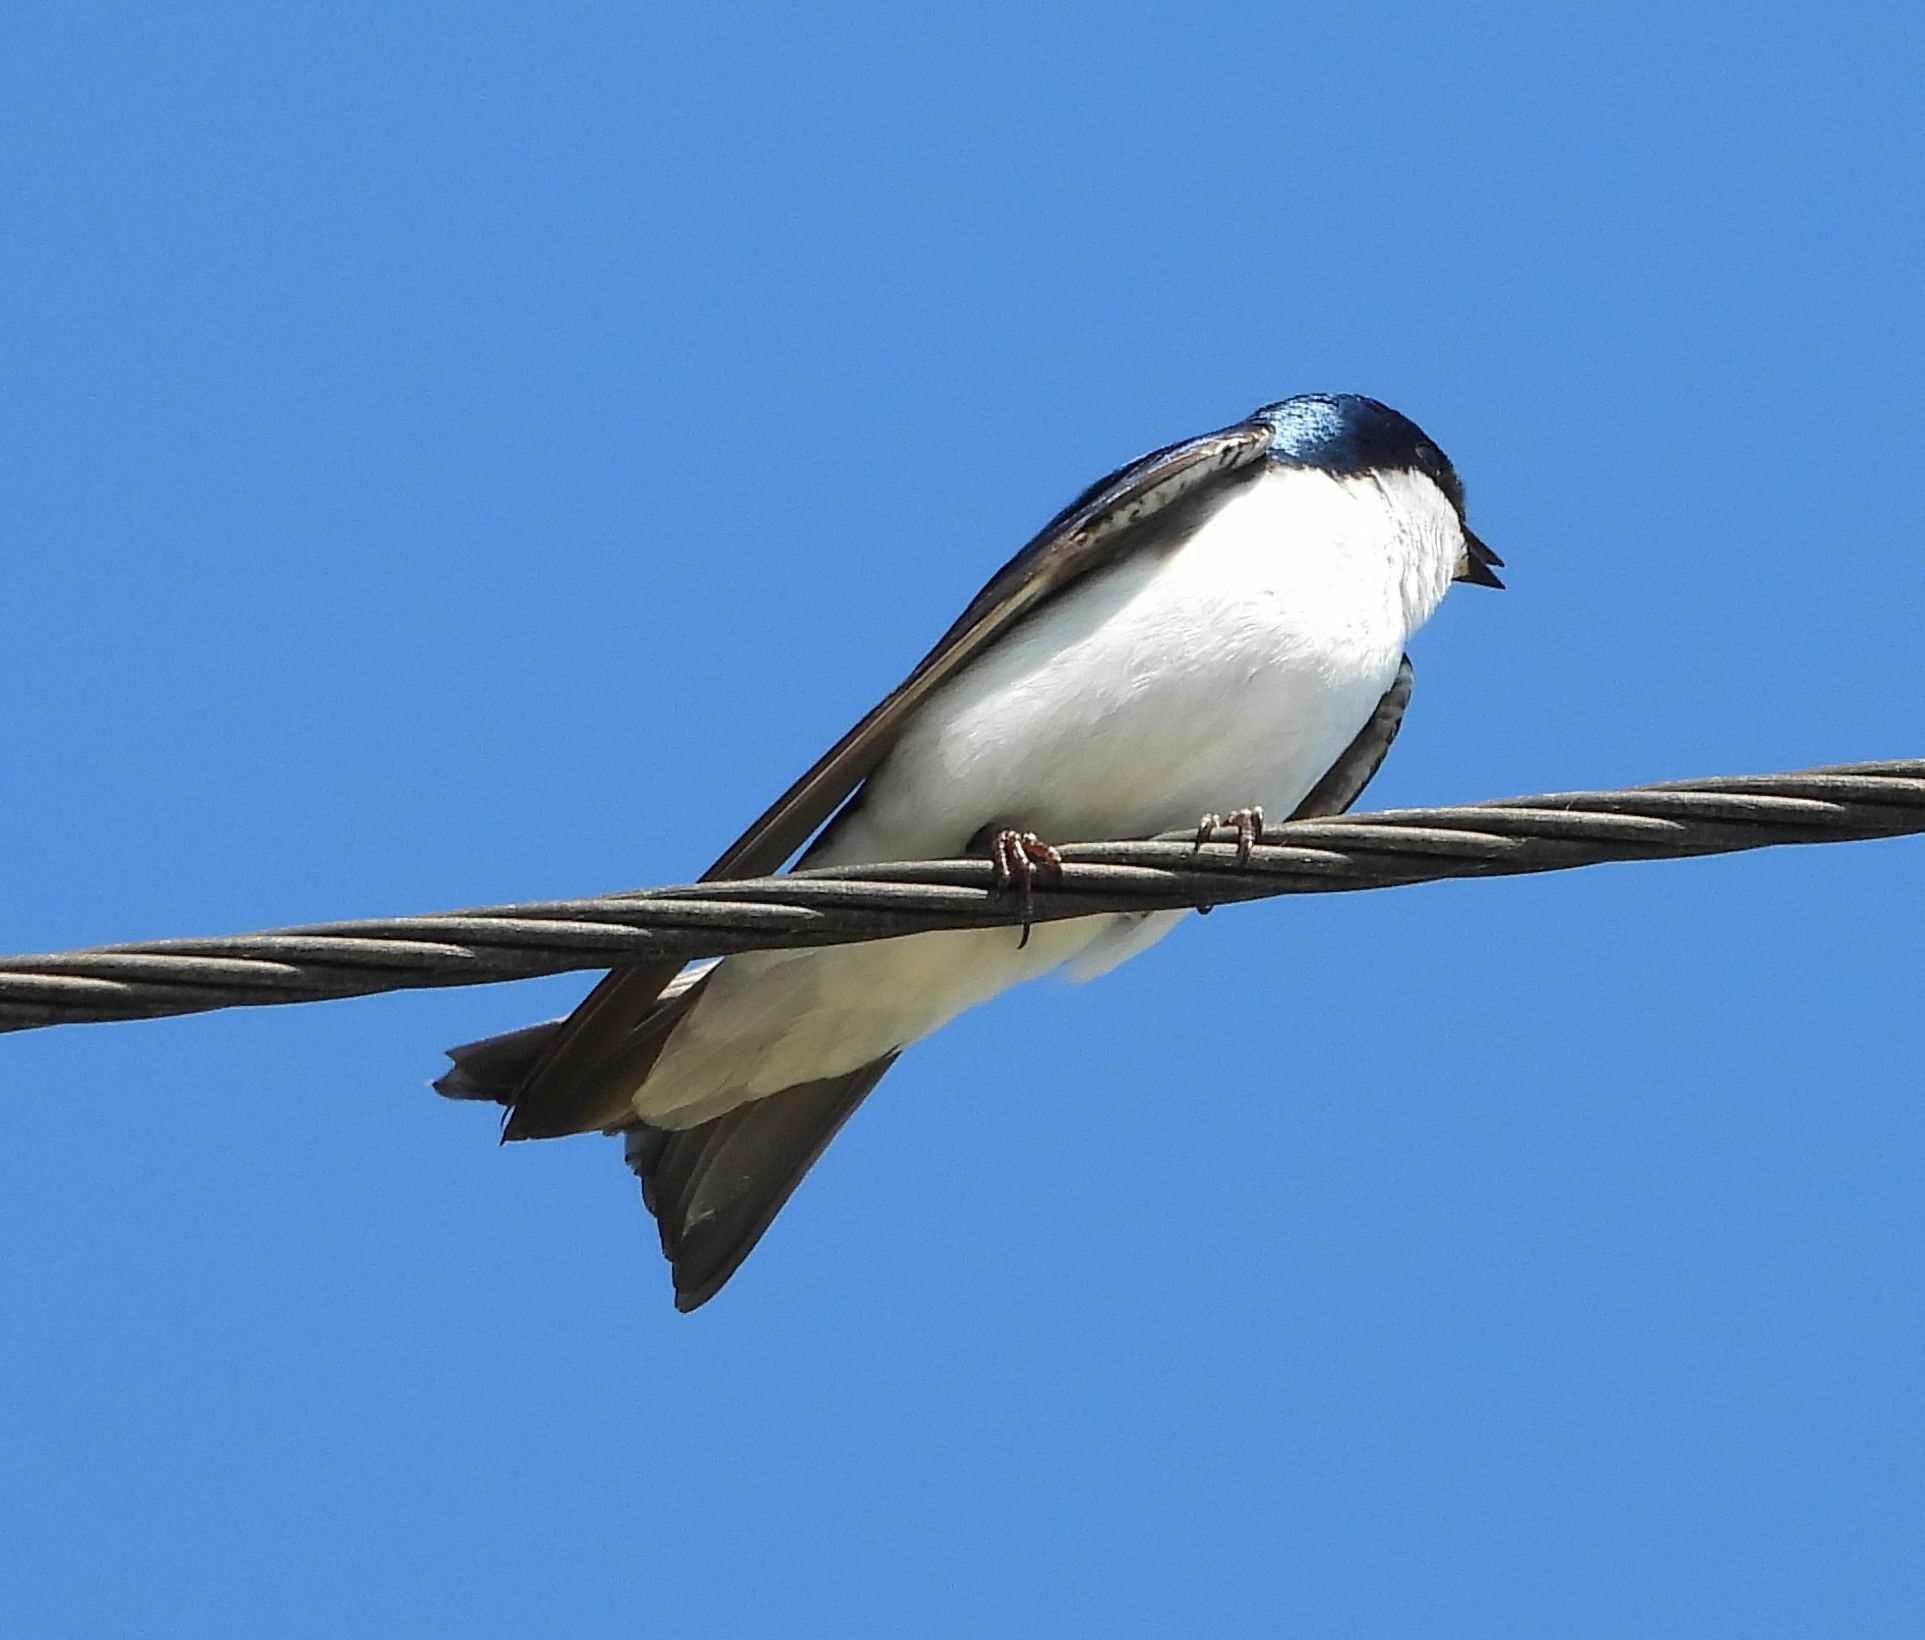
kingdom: Animalia
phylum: Chordata
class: Aves
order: Passeriformes
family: Hirundinidae
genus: Tachycineta
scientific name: Tachycineta bicolor
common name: Tree swallow
